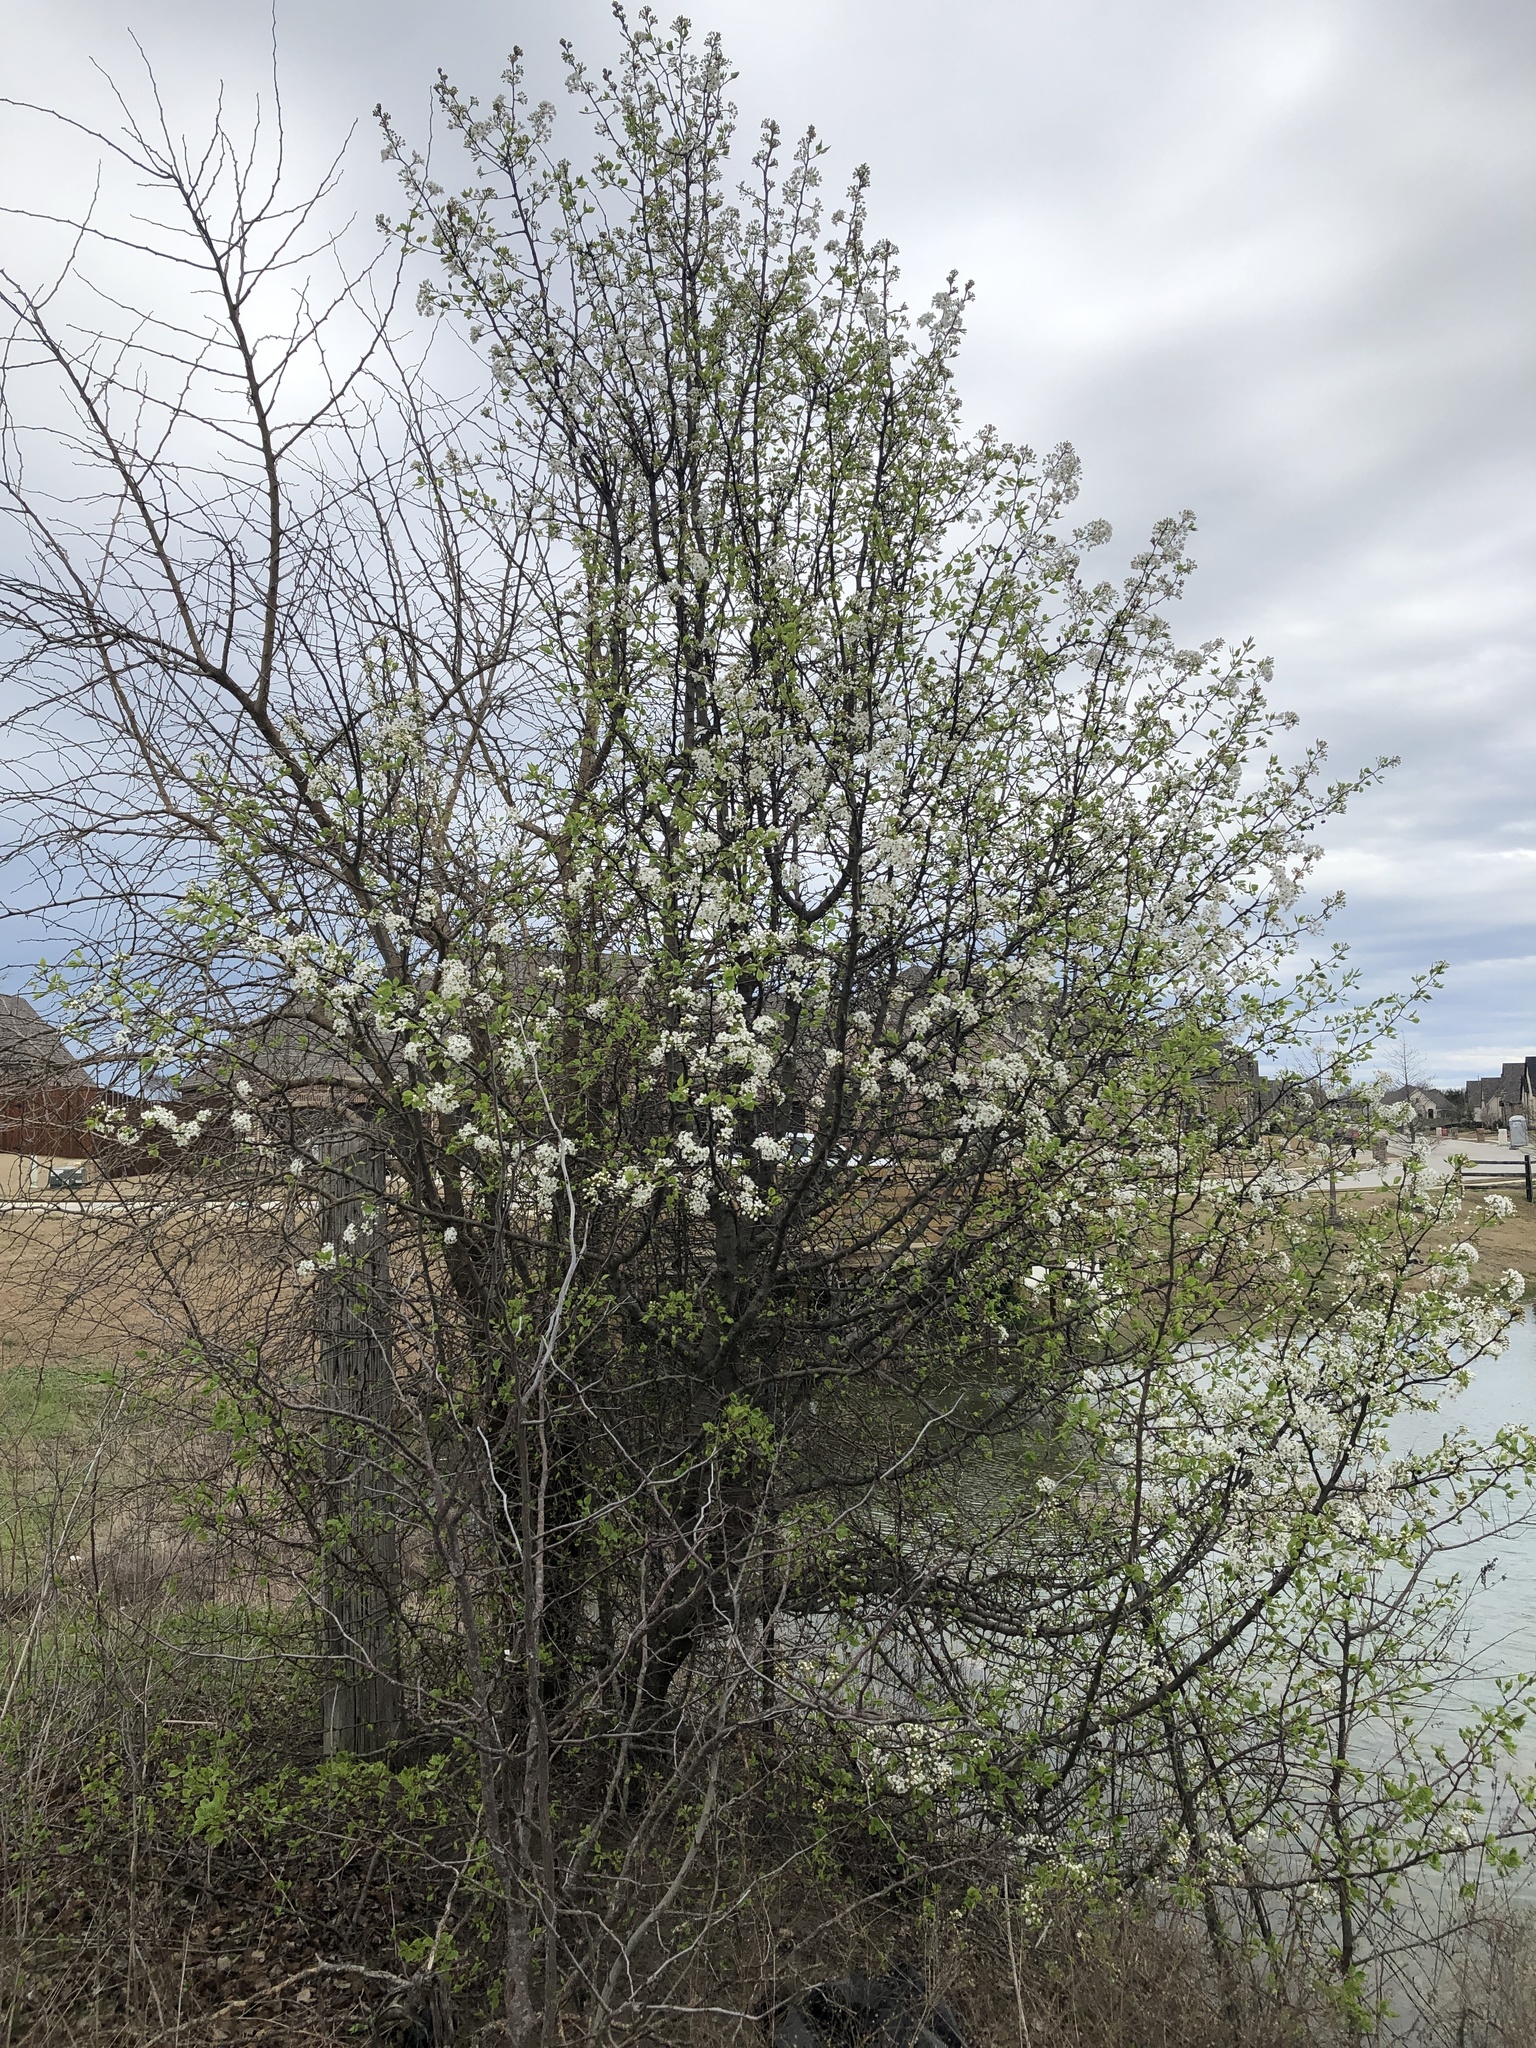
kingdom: Plantae
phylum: Tracheophyta
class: Magnoliopsida
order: Rosales
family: Rosaceae
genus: Pyrus
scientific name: Pyrus calleryana
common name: Callery pear
